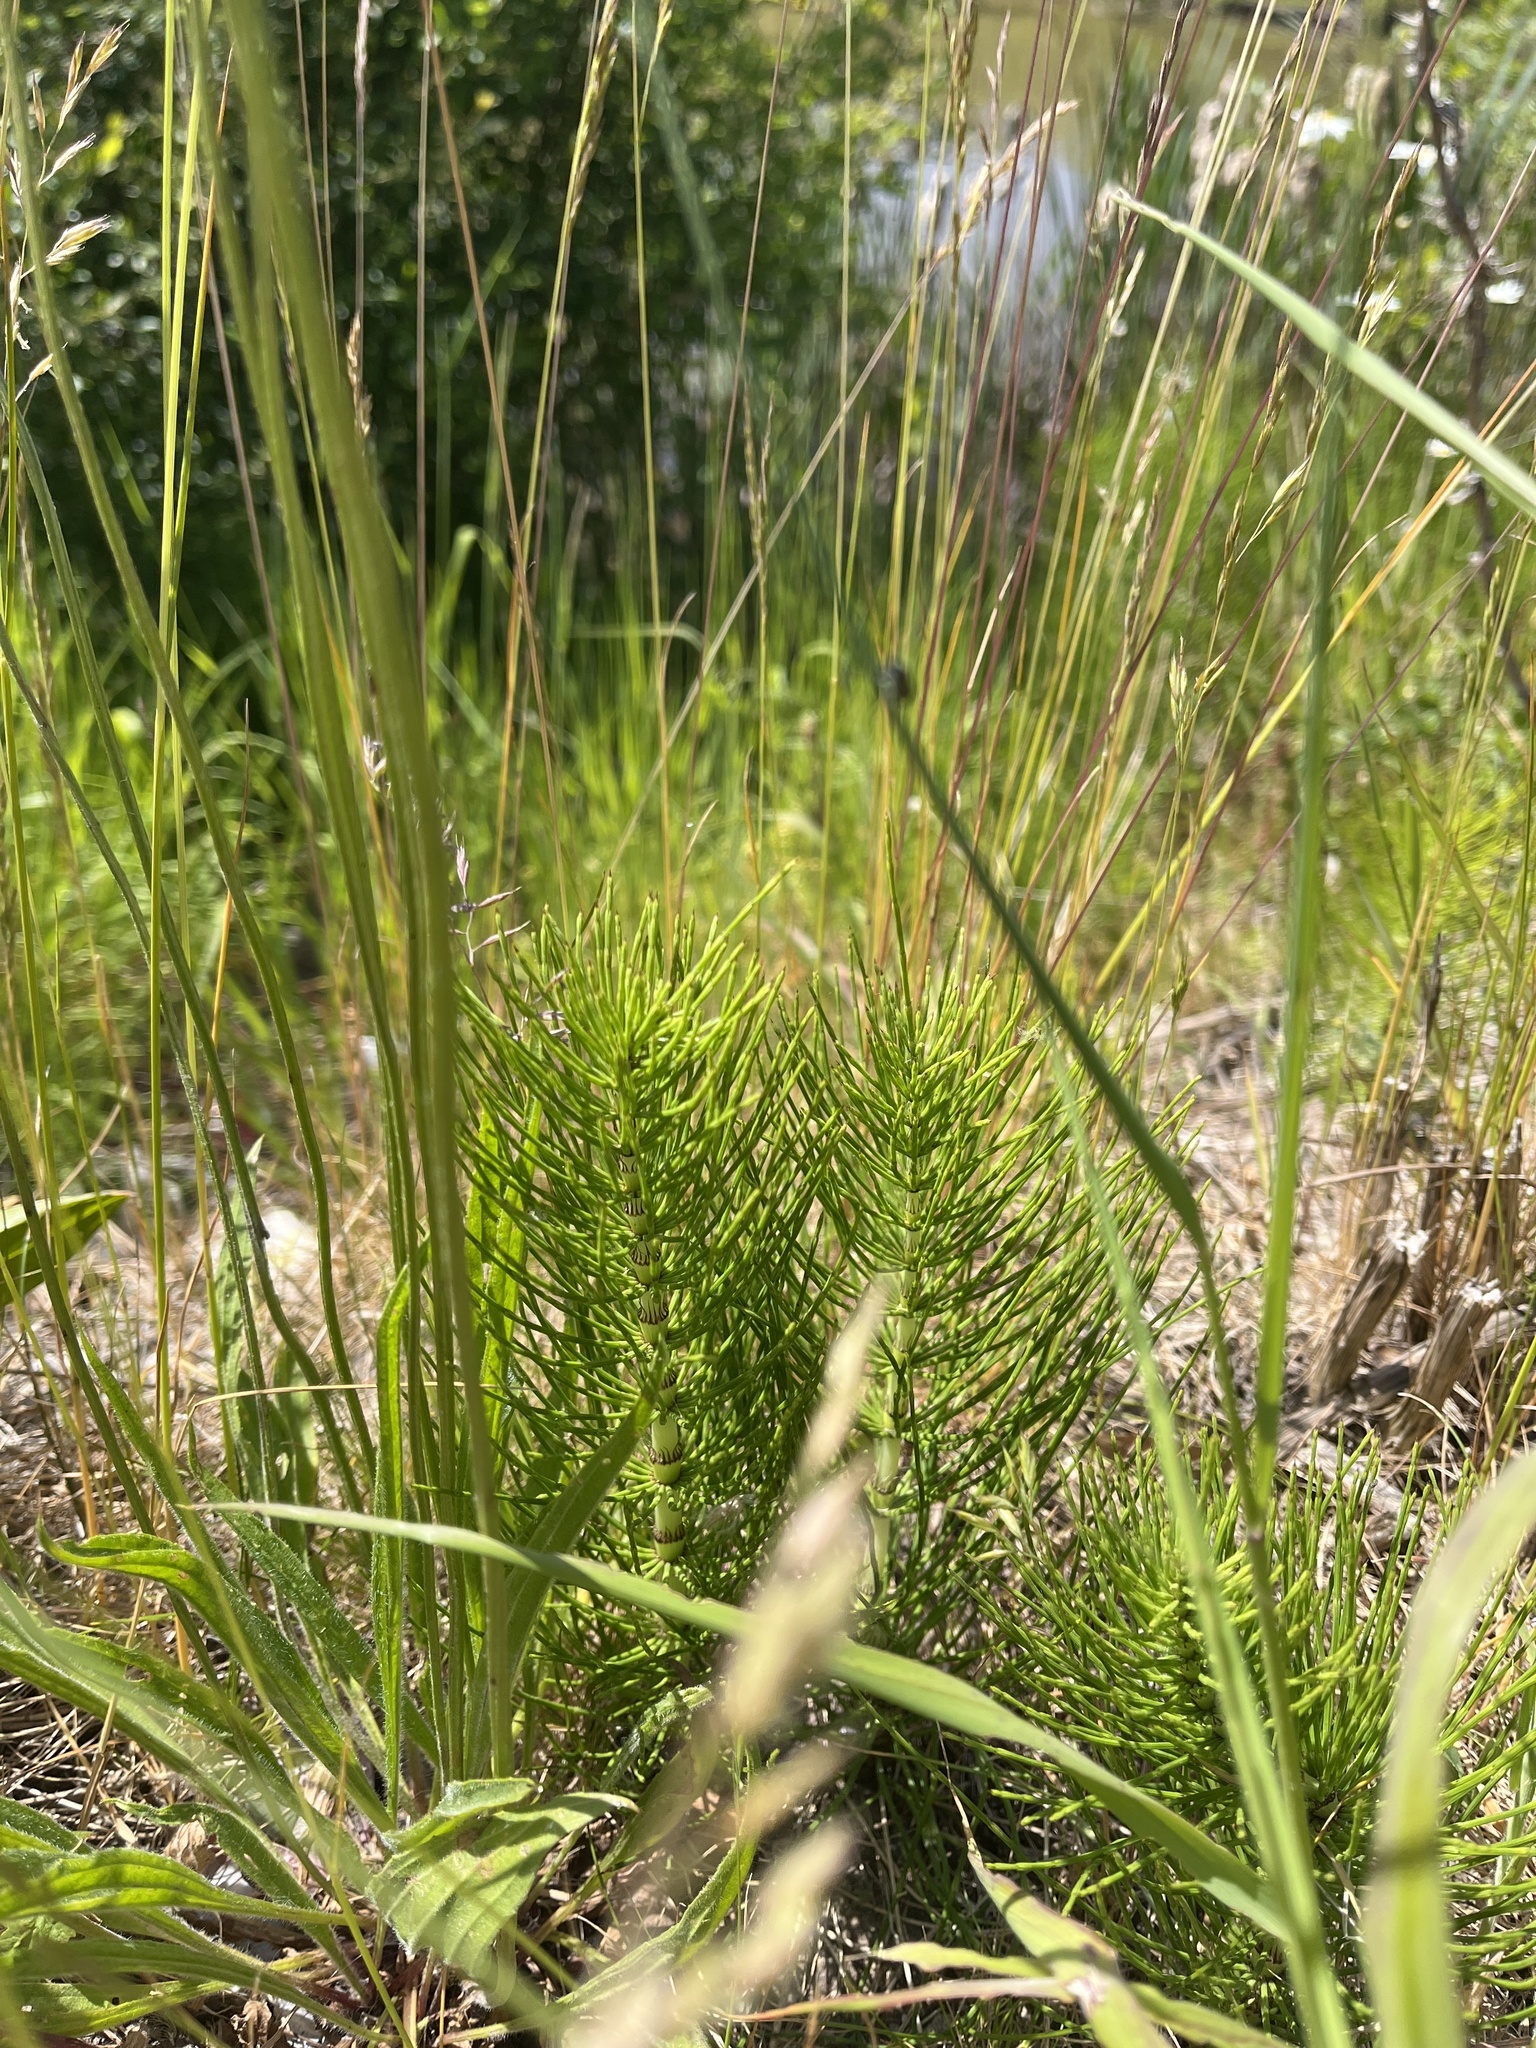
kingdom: Plantae
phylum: Tracheophyta
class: Polypodiopsida
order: Equisetales
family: Equisetaceae
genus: Equisetum
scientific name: Equisetum telmateia
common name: Great horsetail
